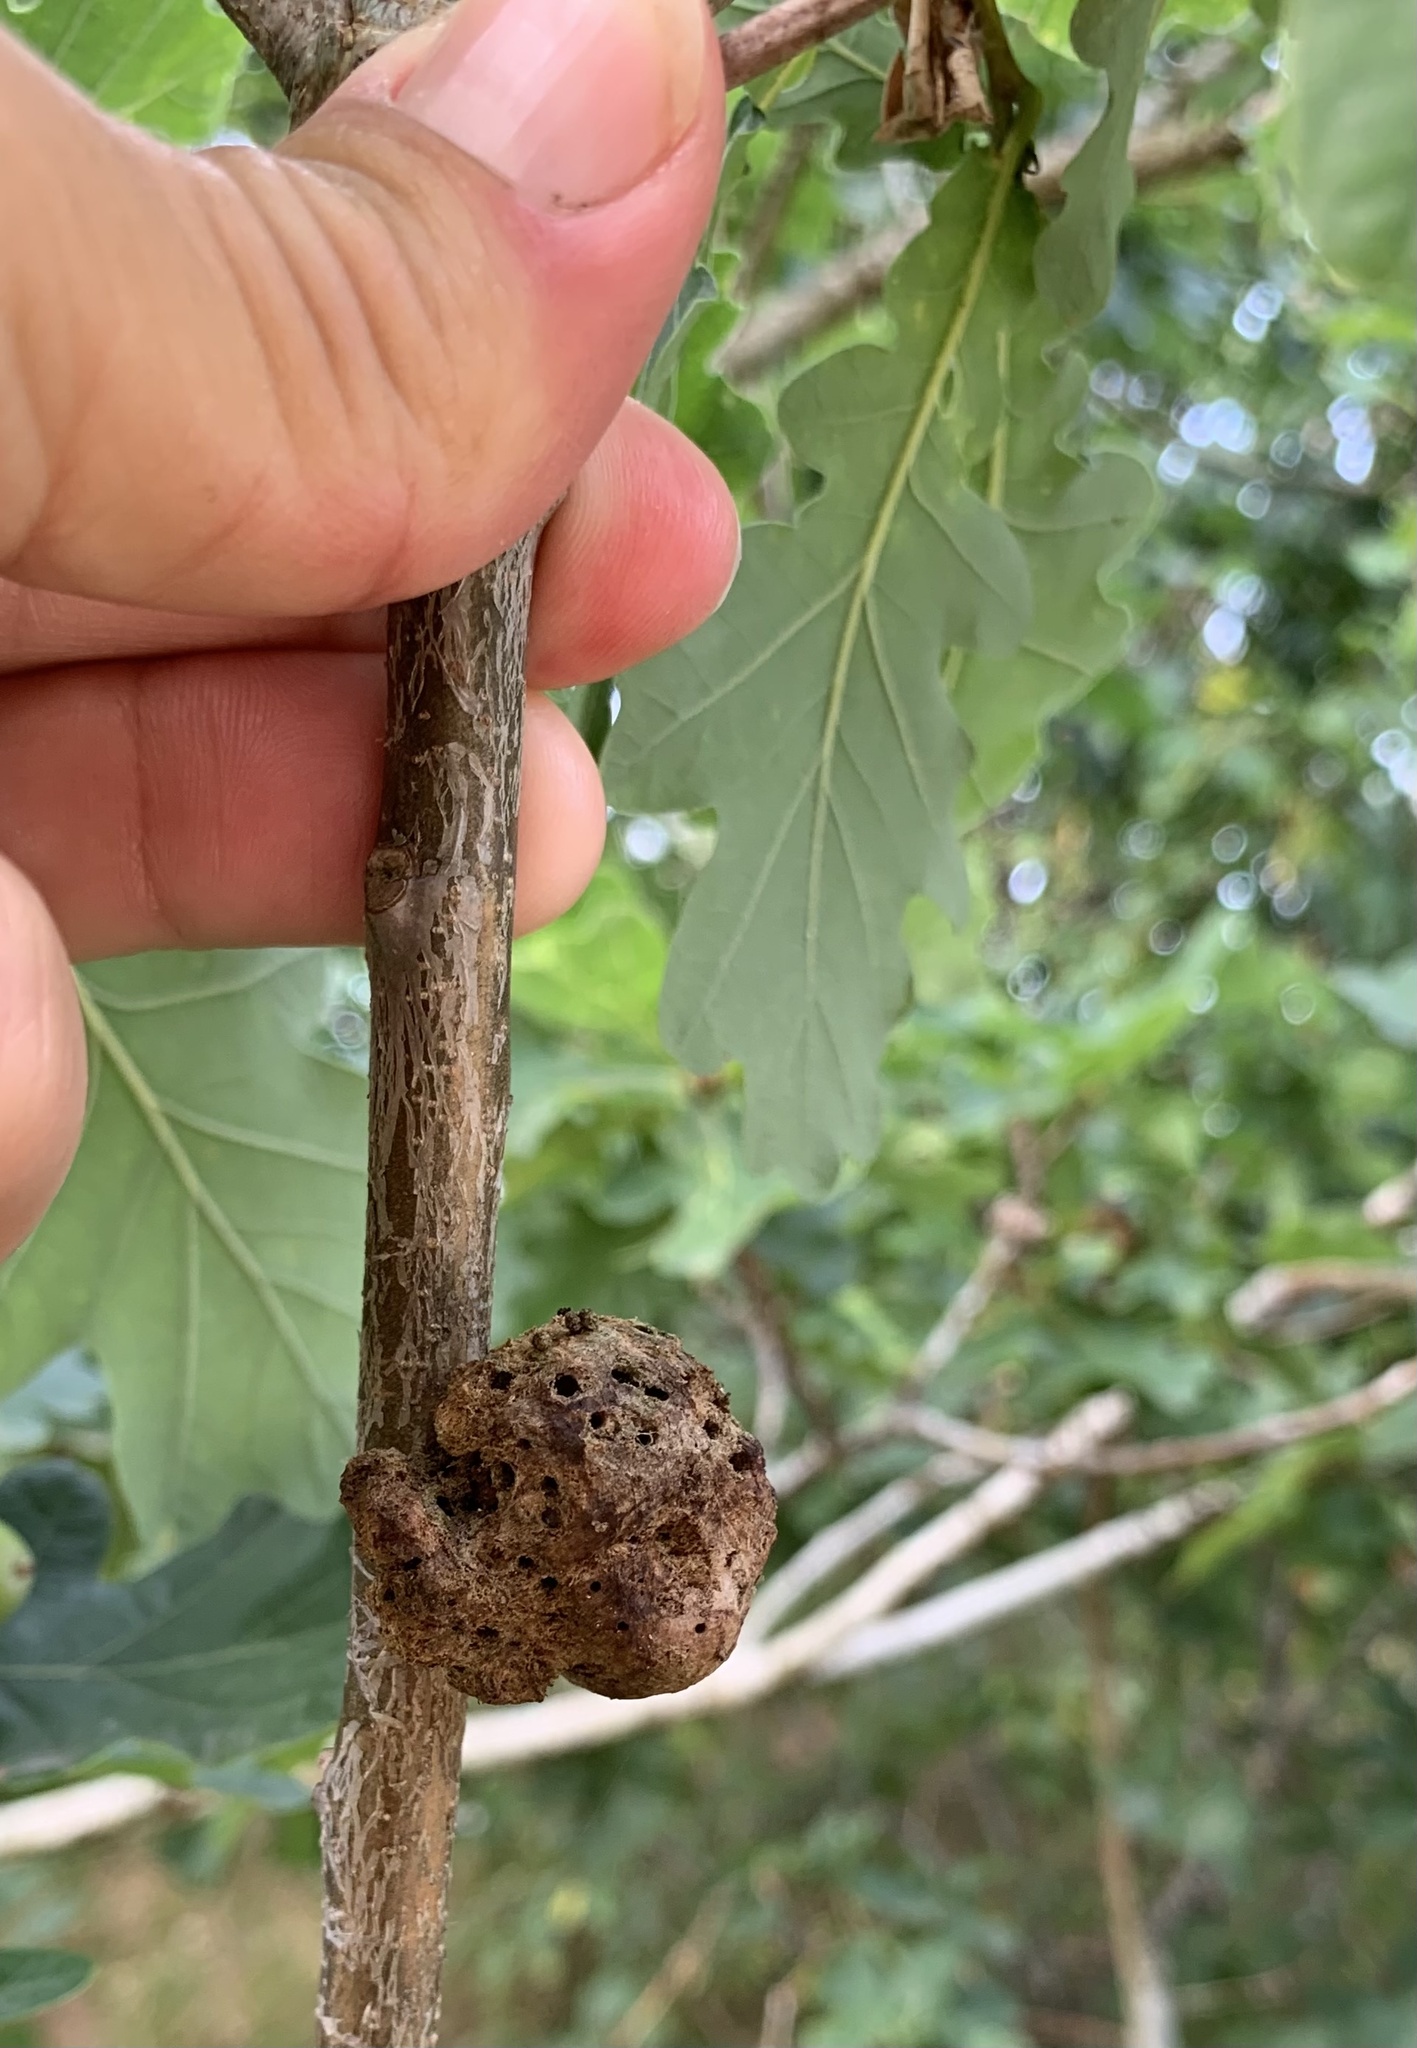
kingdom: Animalia
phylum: Arthropoda
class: Insecta
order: Hymenoptera
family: Cynipidae
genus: Biorhiza
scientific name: Biorhiza pallida
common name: Oak apple
